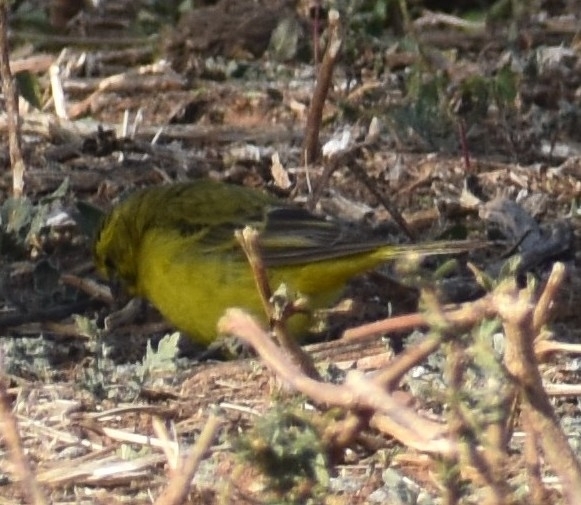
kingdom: Animalia
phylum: Chordata
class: Aves
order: Passeriformes
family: Fringillidae
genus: Crithagra
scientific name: Crithagra flaviventris
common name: Yellow canary
